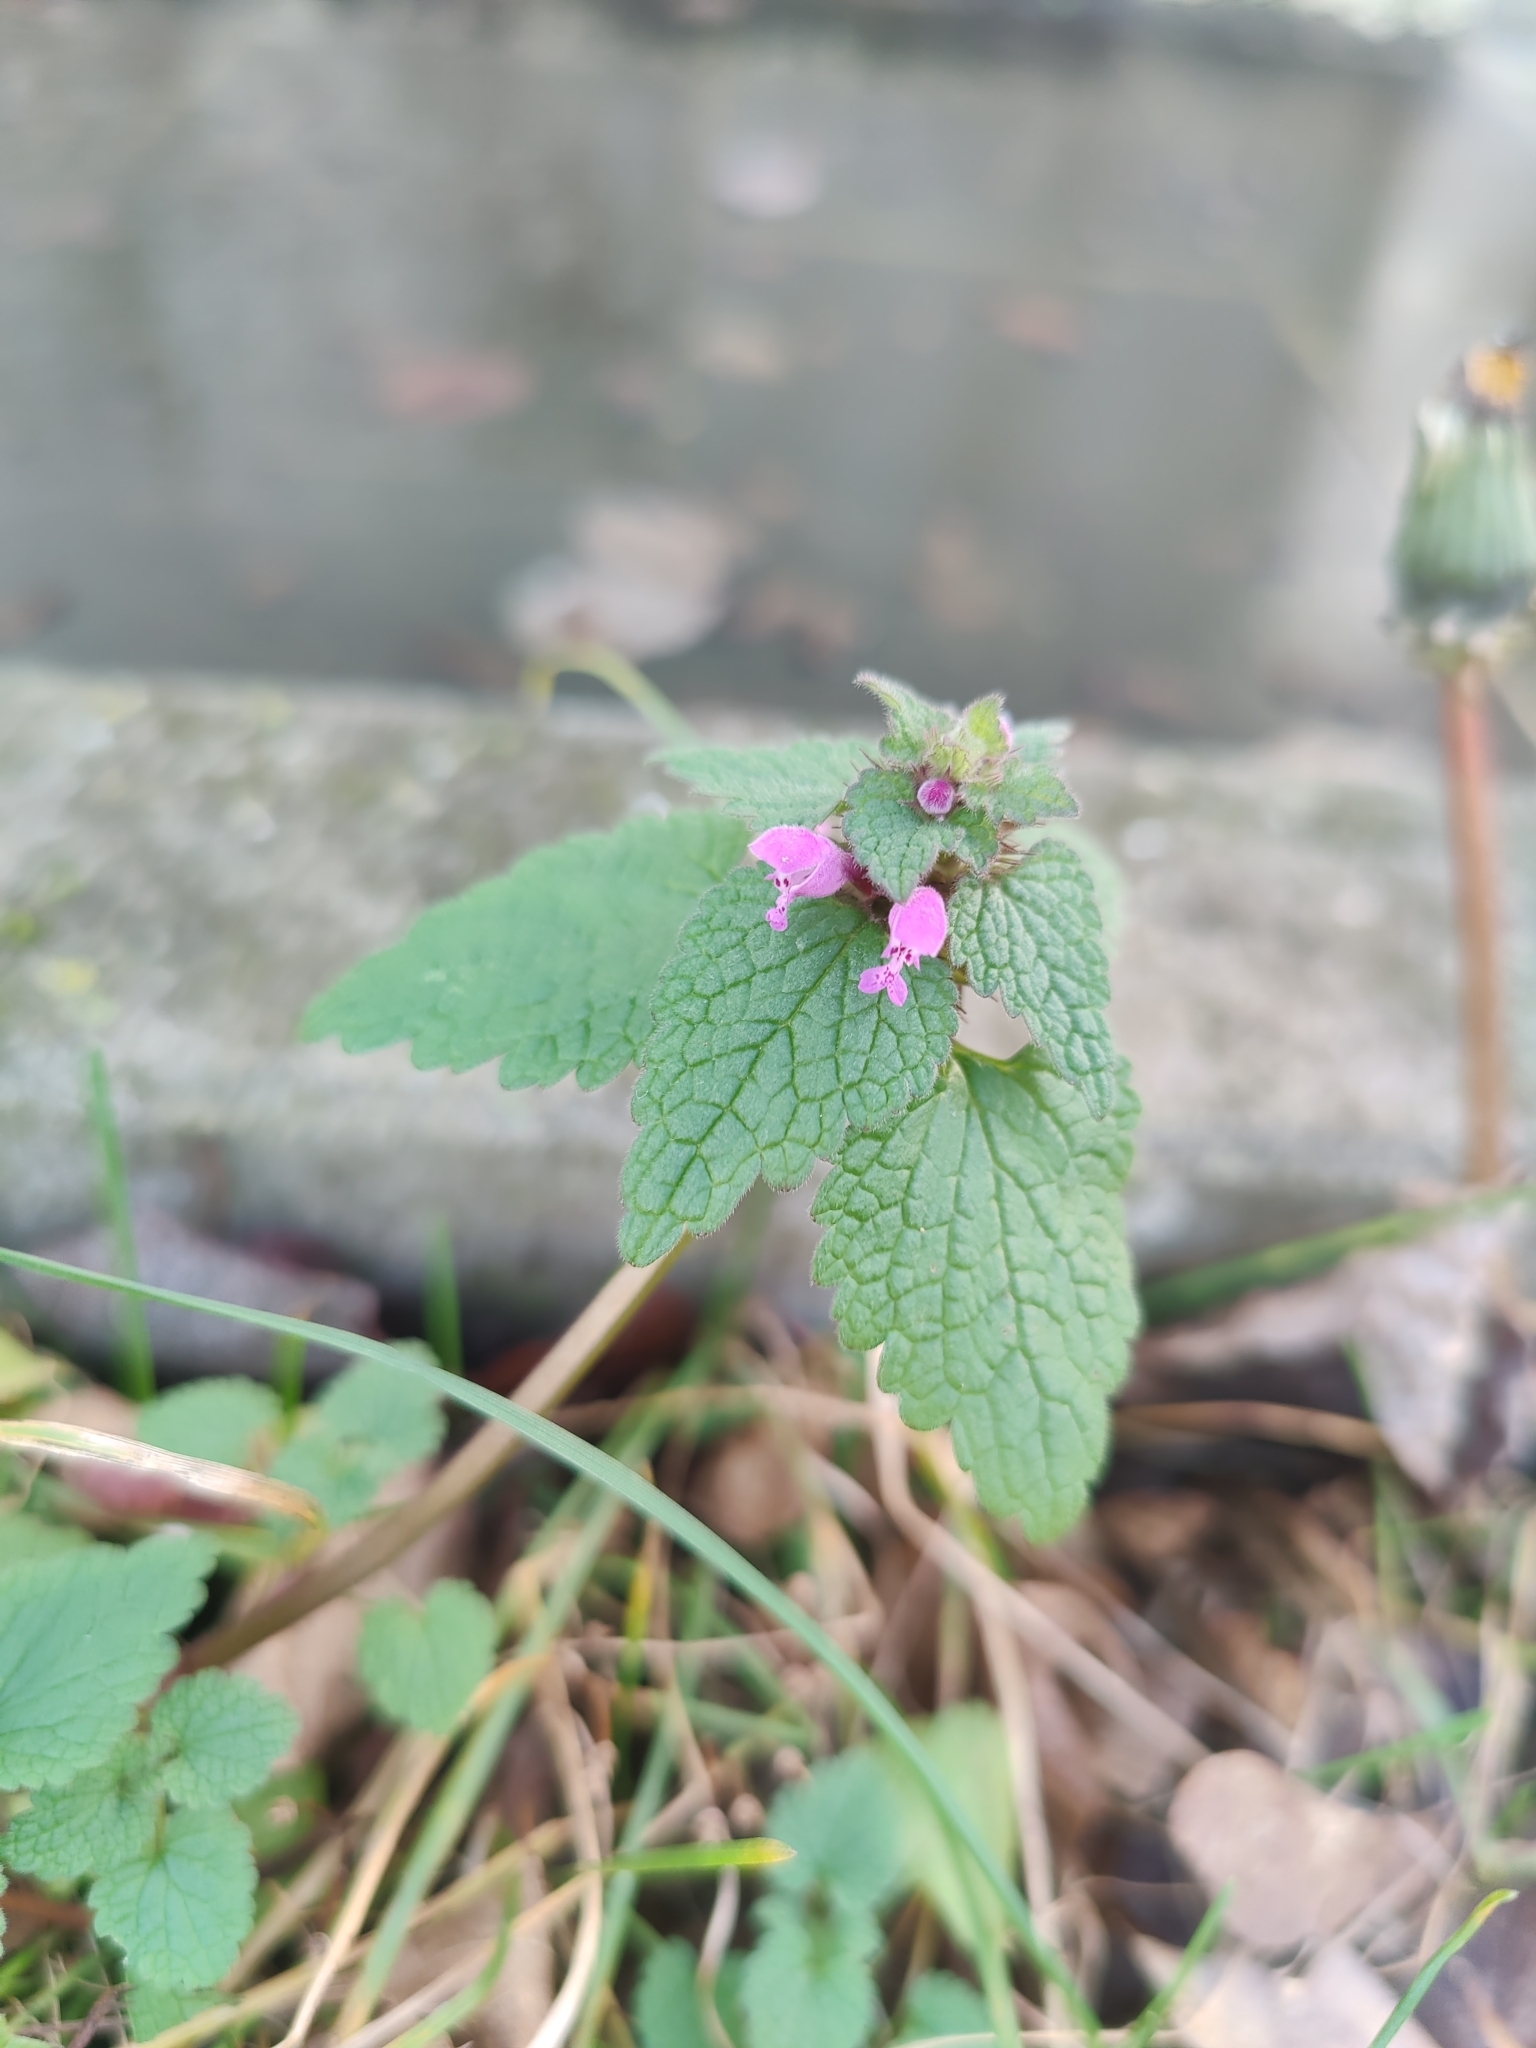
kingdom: Plantae
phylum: Tracheophyta
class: Magnoliopsida
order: Lamiales
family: Lamiaceae
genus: Lamium
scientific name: Lamium purpureum
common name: Red dead-nettle
